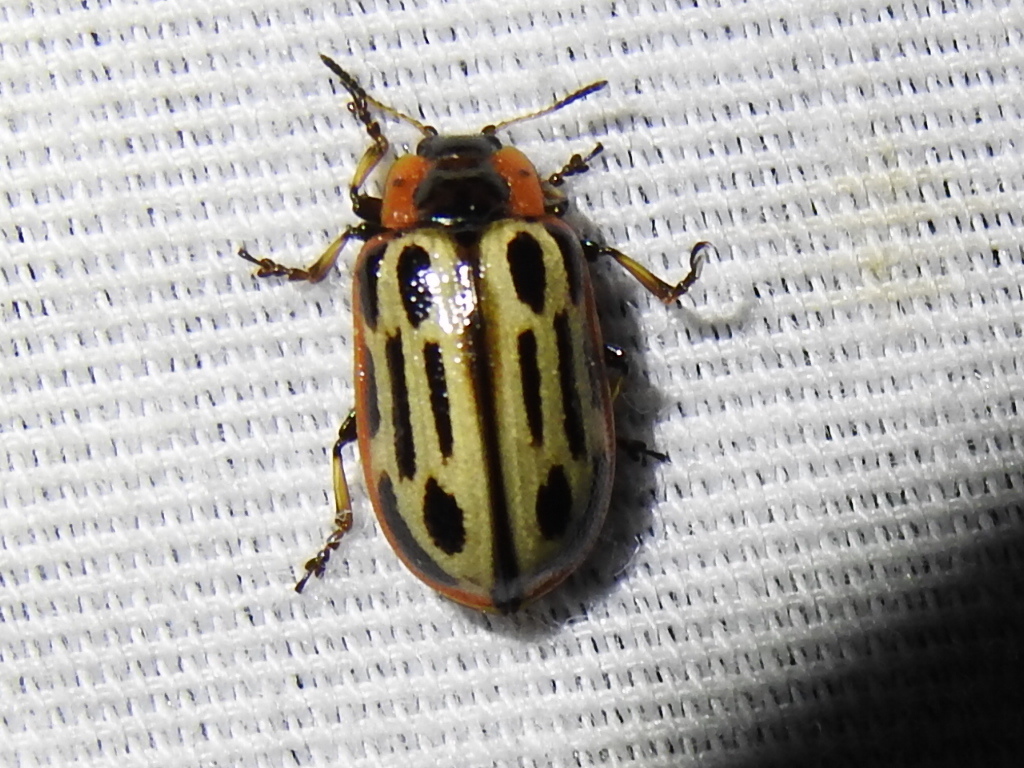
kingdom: Animalia
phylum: Arthropoda
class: Insecta
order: Coleoptera
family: Chrysomelidae
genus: Aethiopocassis
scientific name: Aethiopocassis scripta
